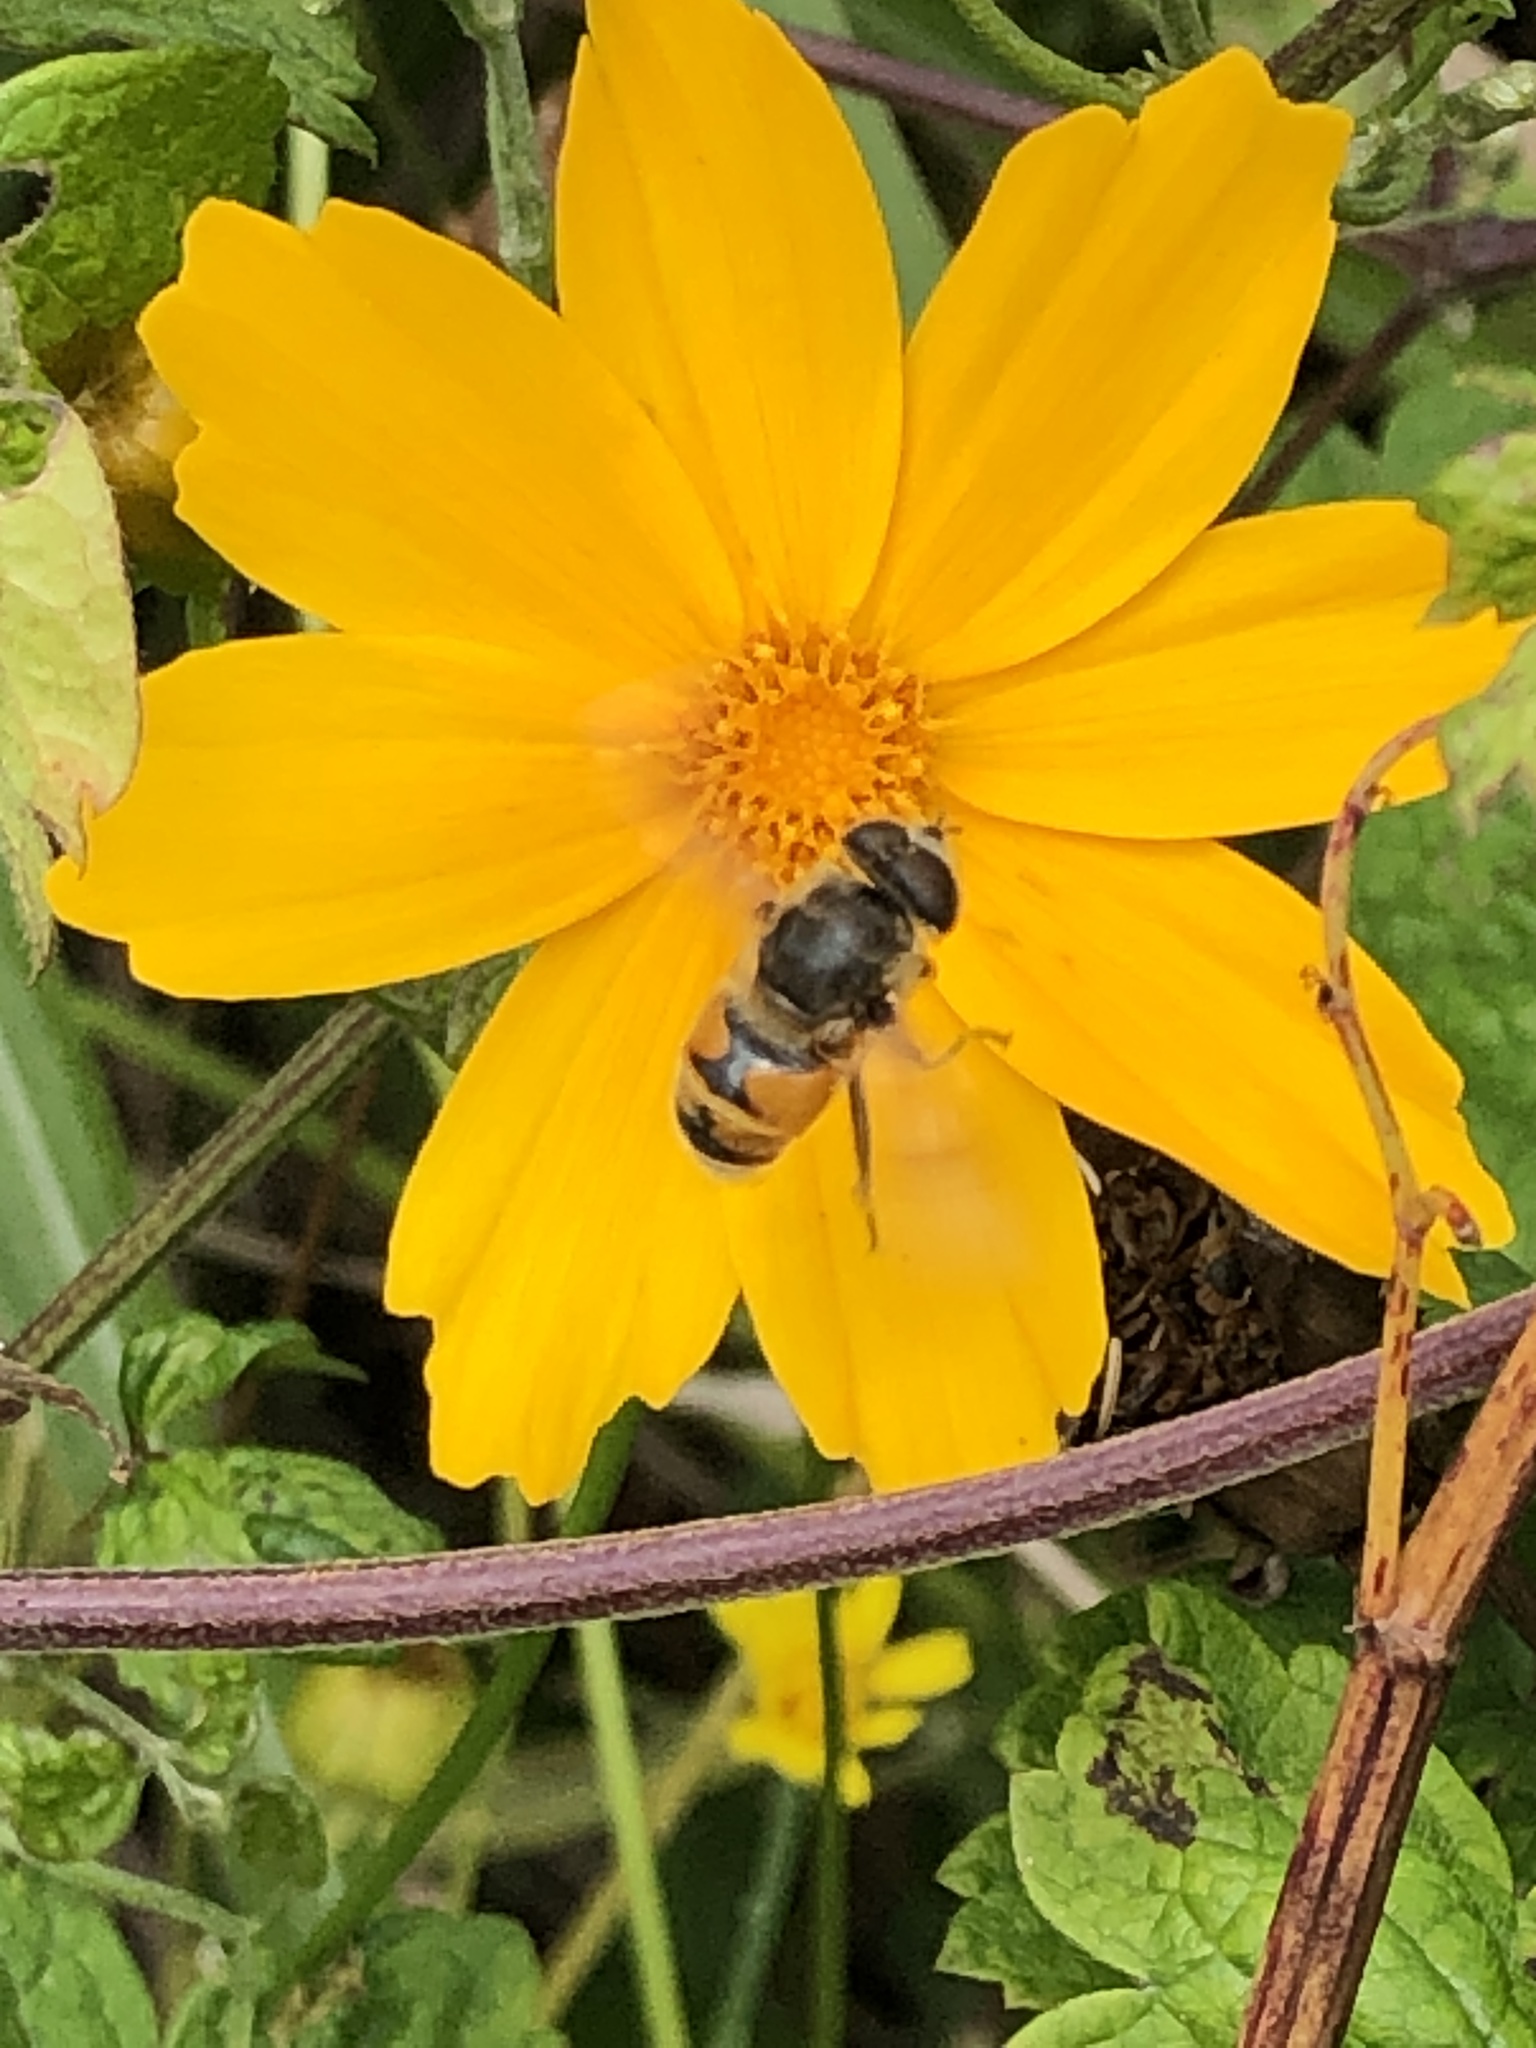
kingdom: Animalia
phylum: Arthropoda
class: Insecta
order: Diptera
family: Syrphidae
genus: Eristalis
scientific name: Eristalis tenax
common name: Drone fly
